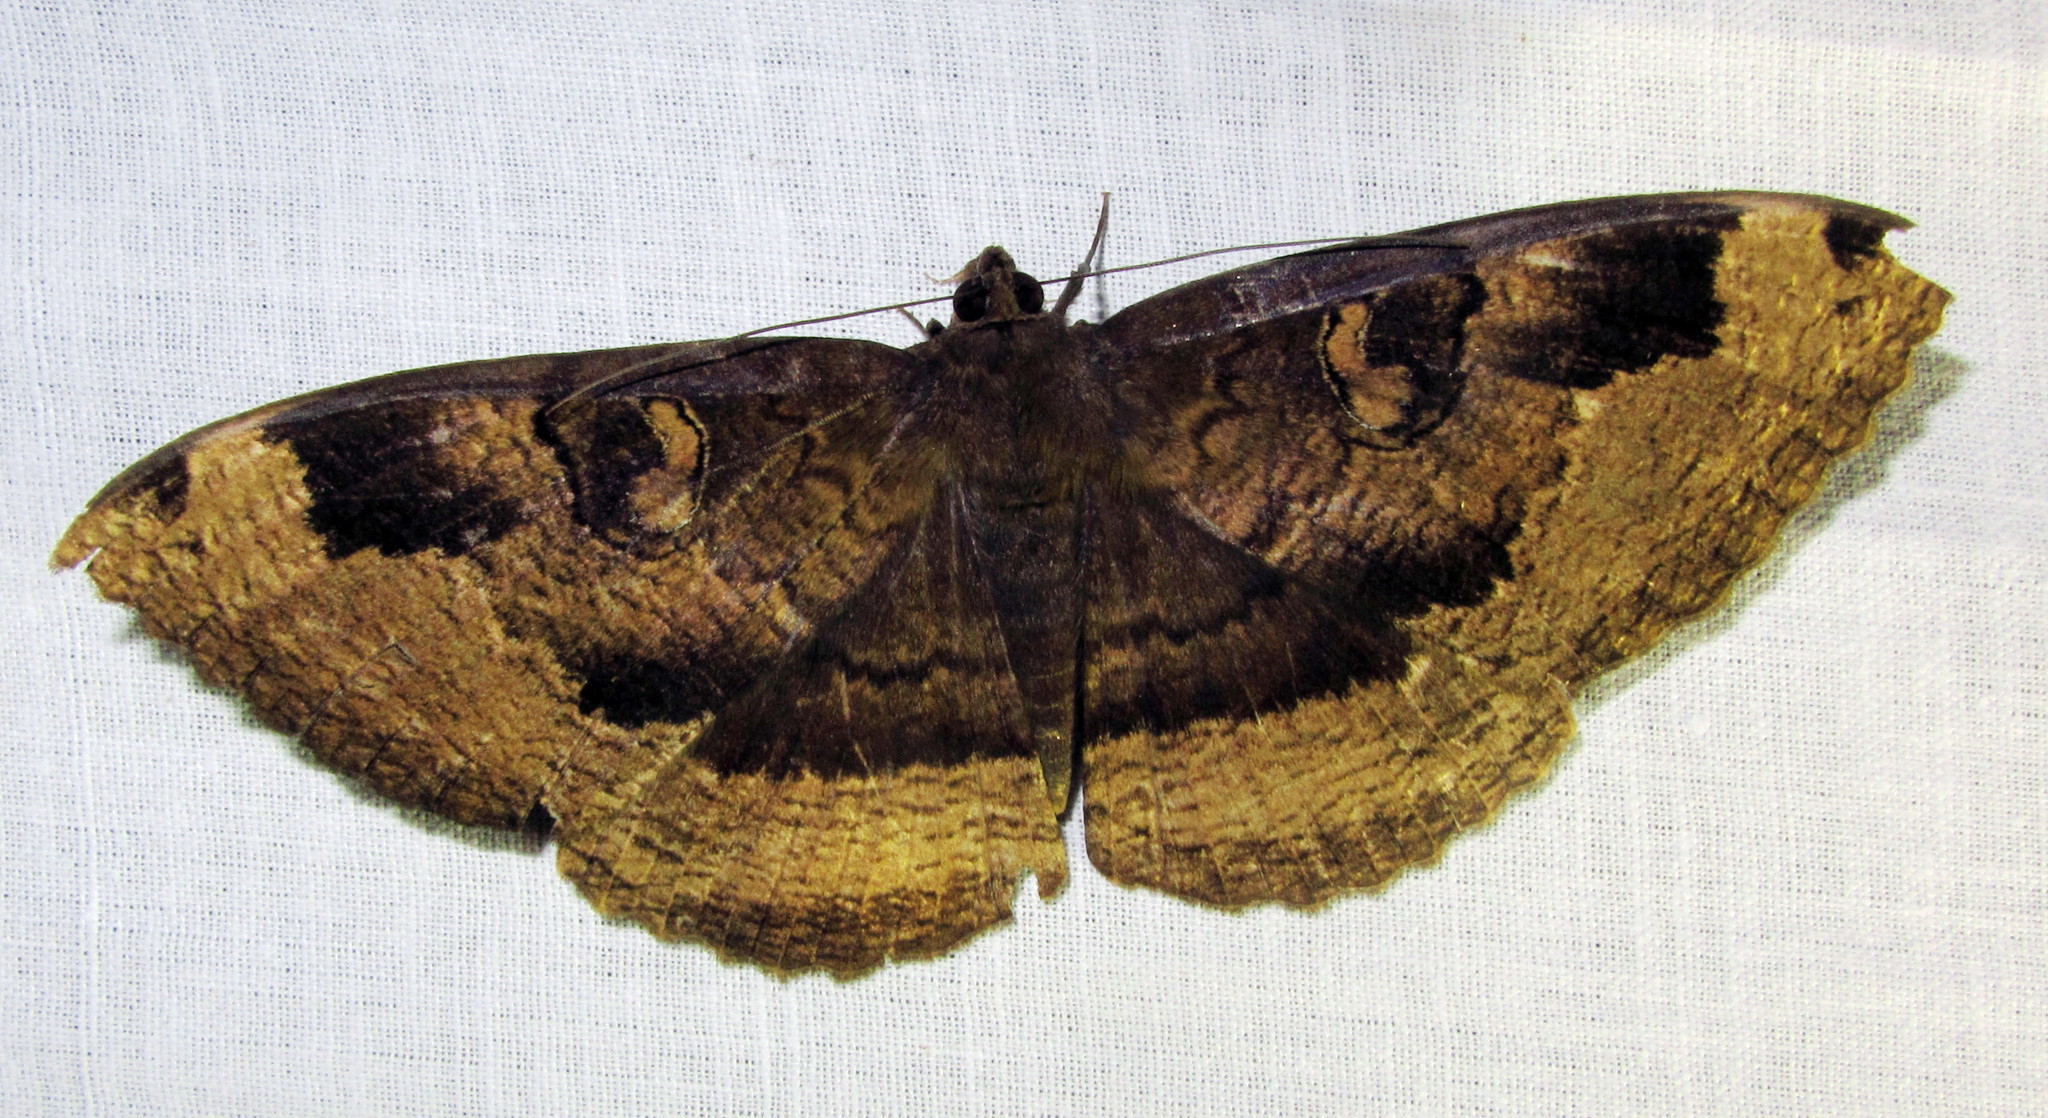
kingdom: Animalia
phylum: Arthropoda
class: Insecta
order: Lepidoptera
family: Erebidae
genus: Erebus
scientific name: Erebus caprimulgus
